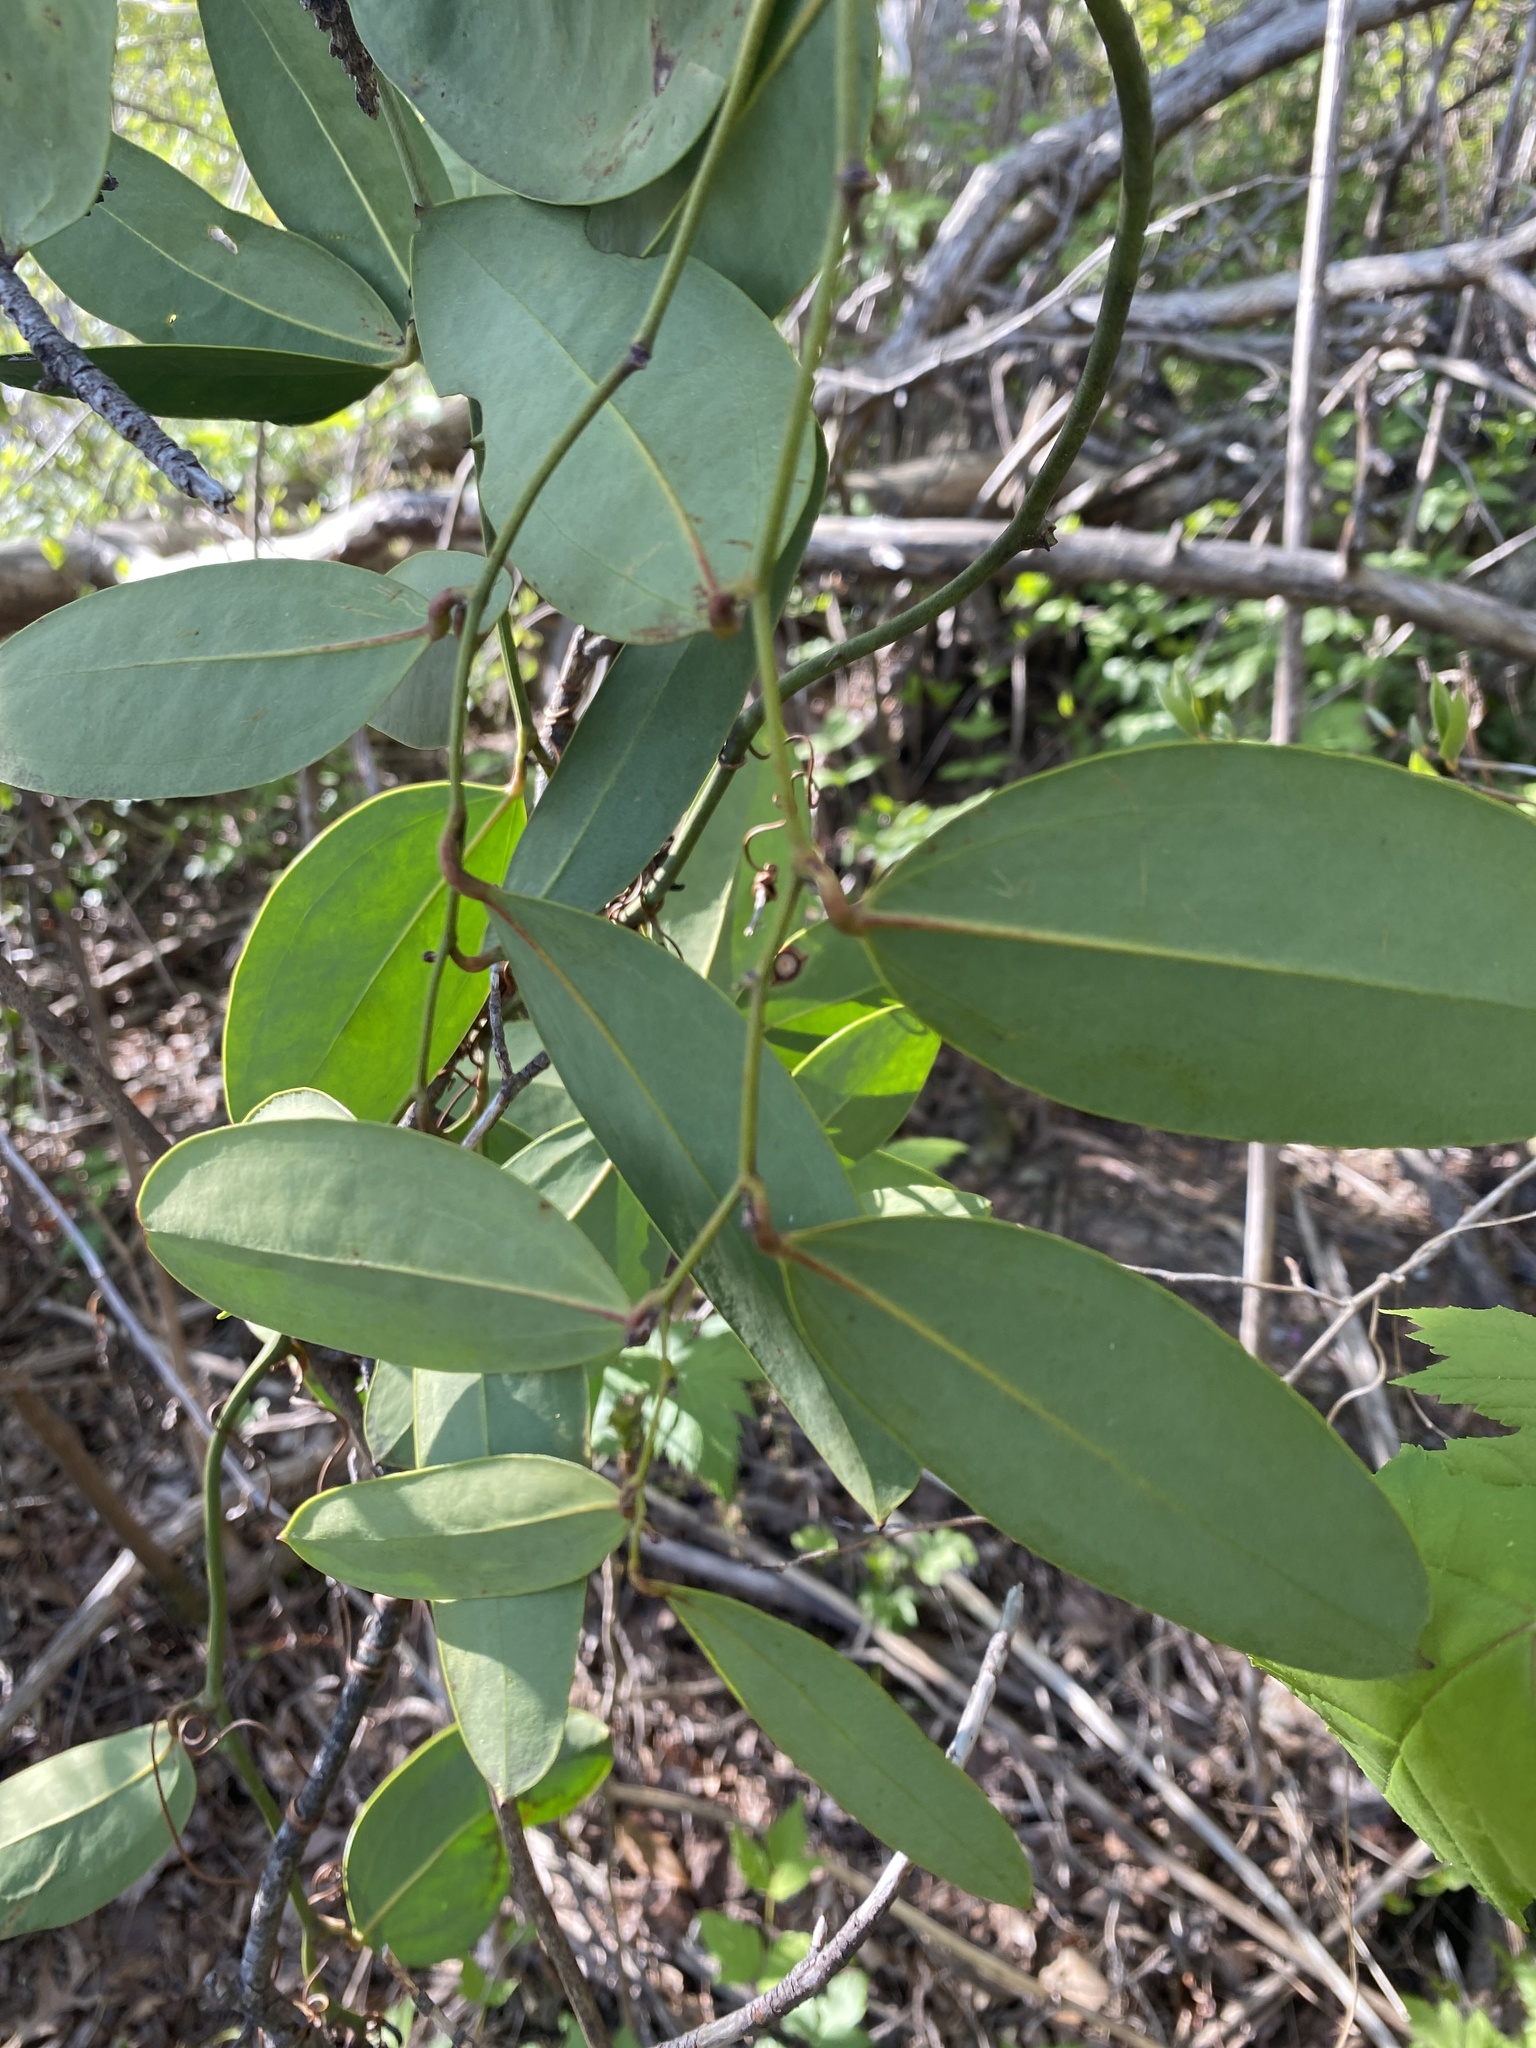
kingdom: Plantae
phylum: Tracheophyta
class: Liliopsida
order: Liliales
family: Smilacaceae
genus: Smilax
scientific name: Smilax laurifolia
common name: Bamboovine
